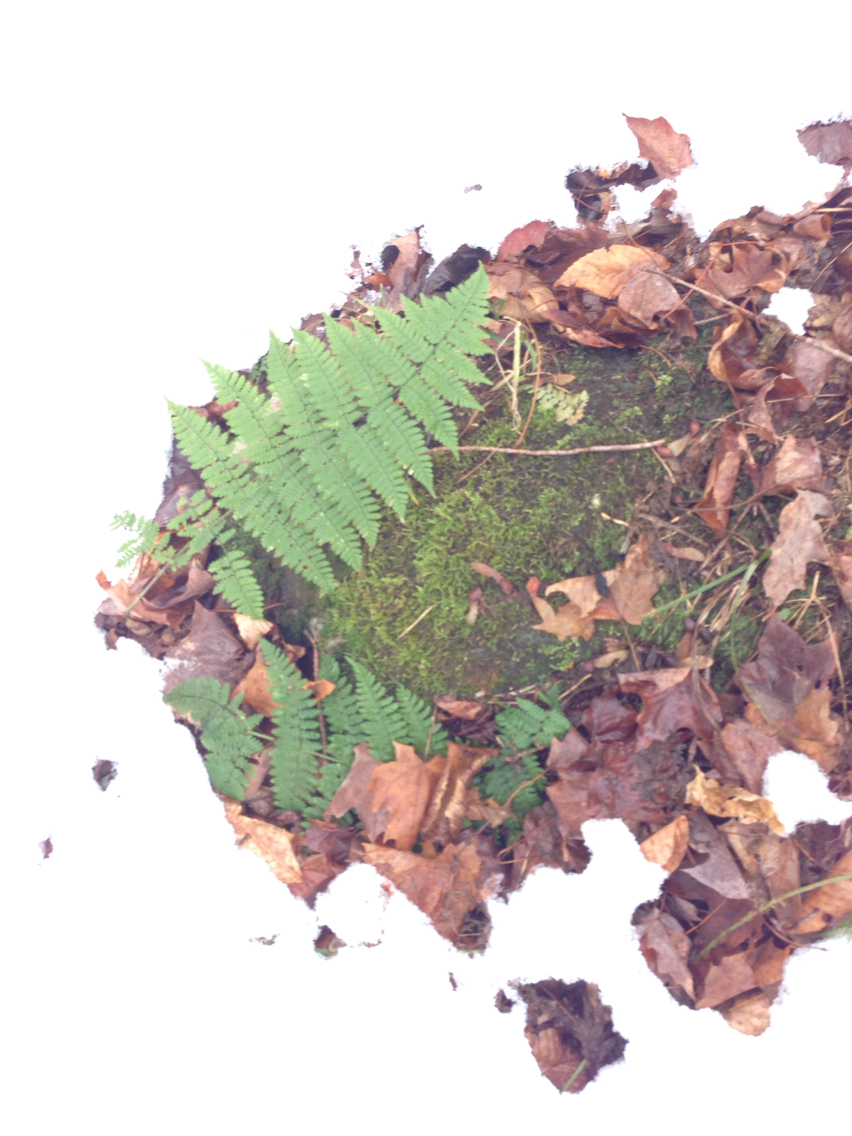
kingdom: Plantae
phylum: Tracheophyta
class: Polypodiopsida
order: Polypodiales
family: Dryopteridaceae
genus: Dryopteris
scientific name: Dryopteris intermedia
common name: Evergreen wood fern
